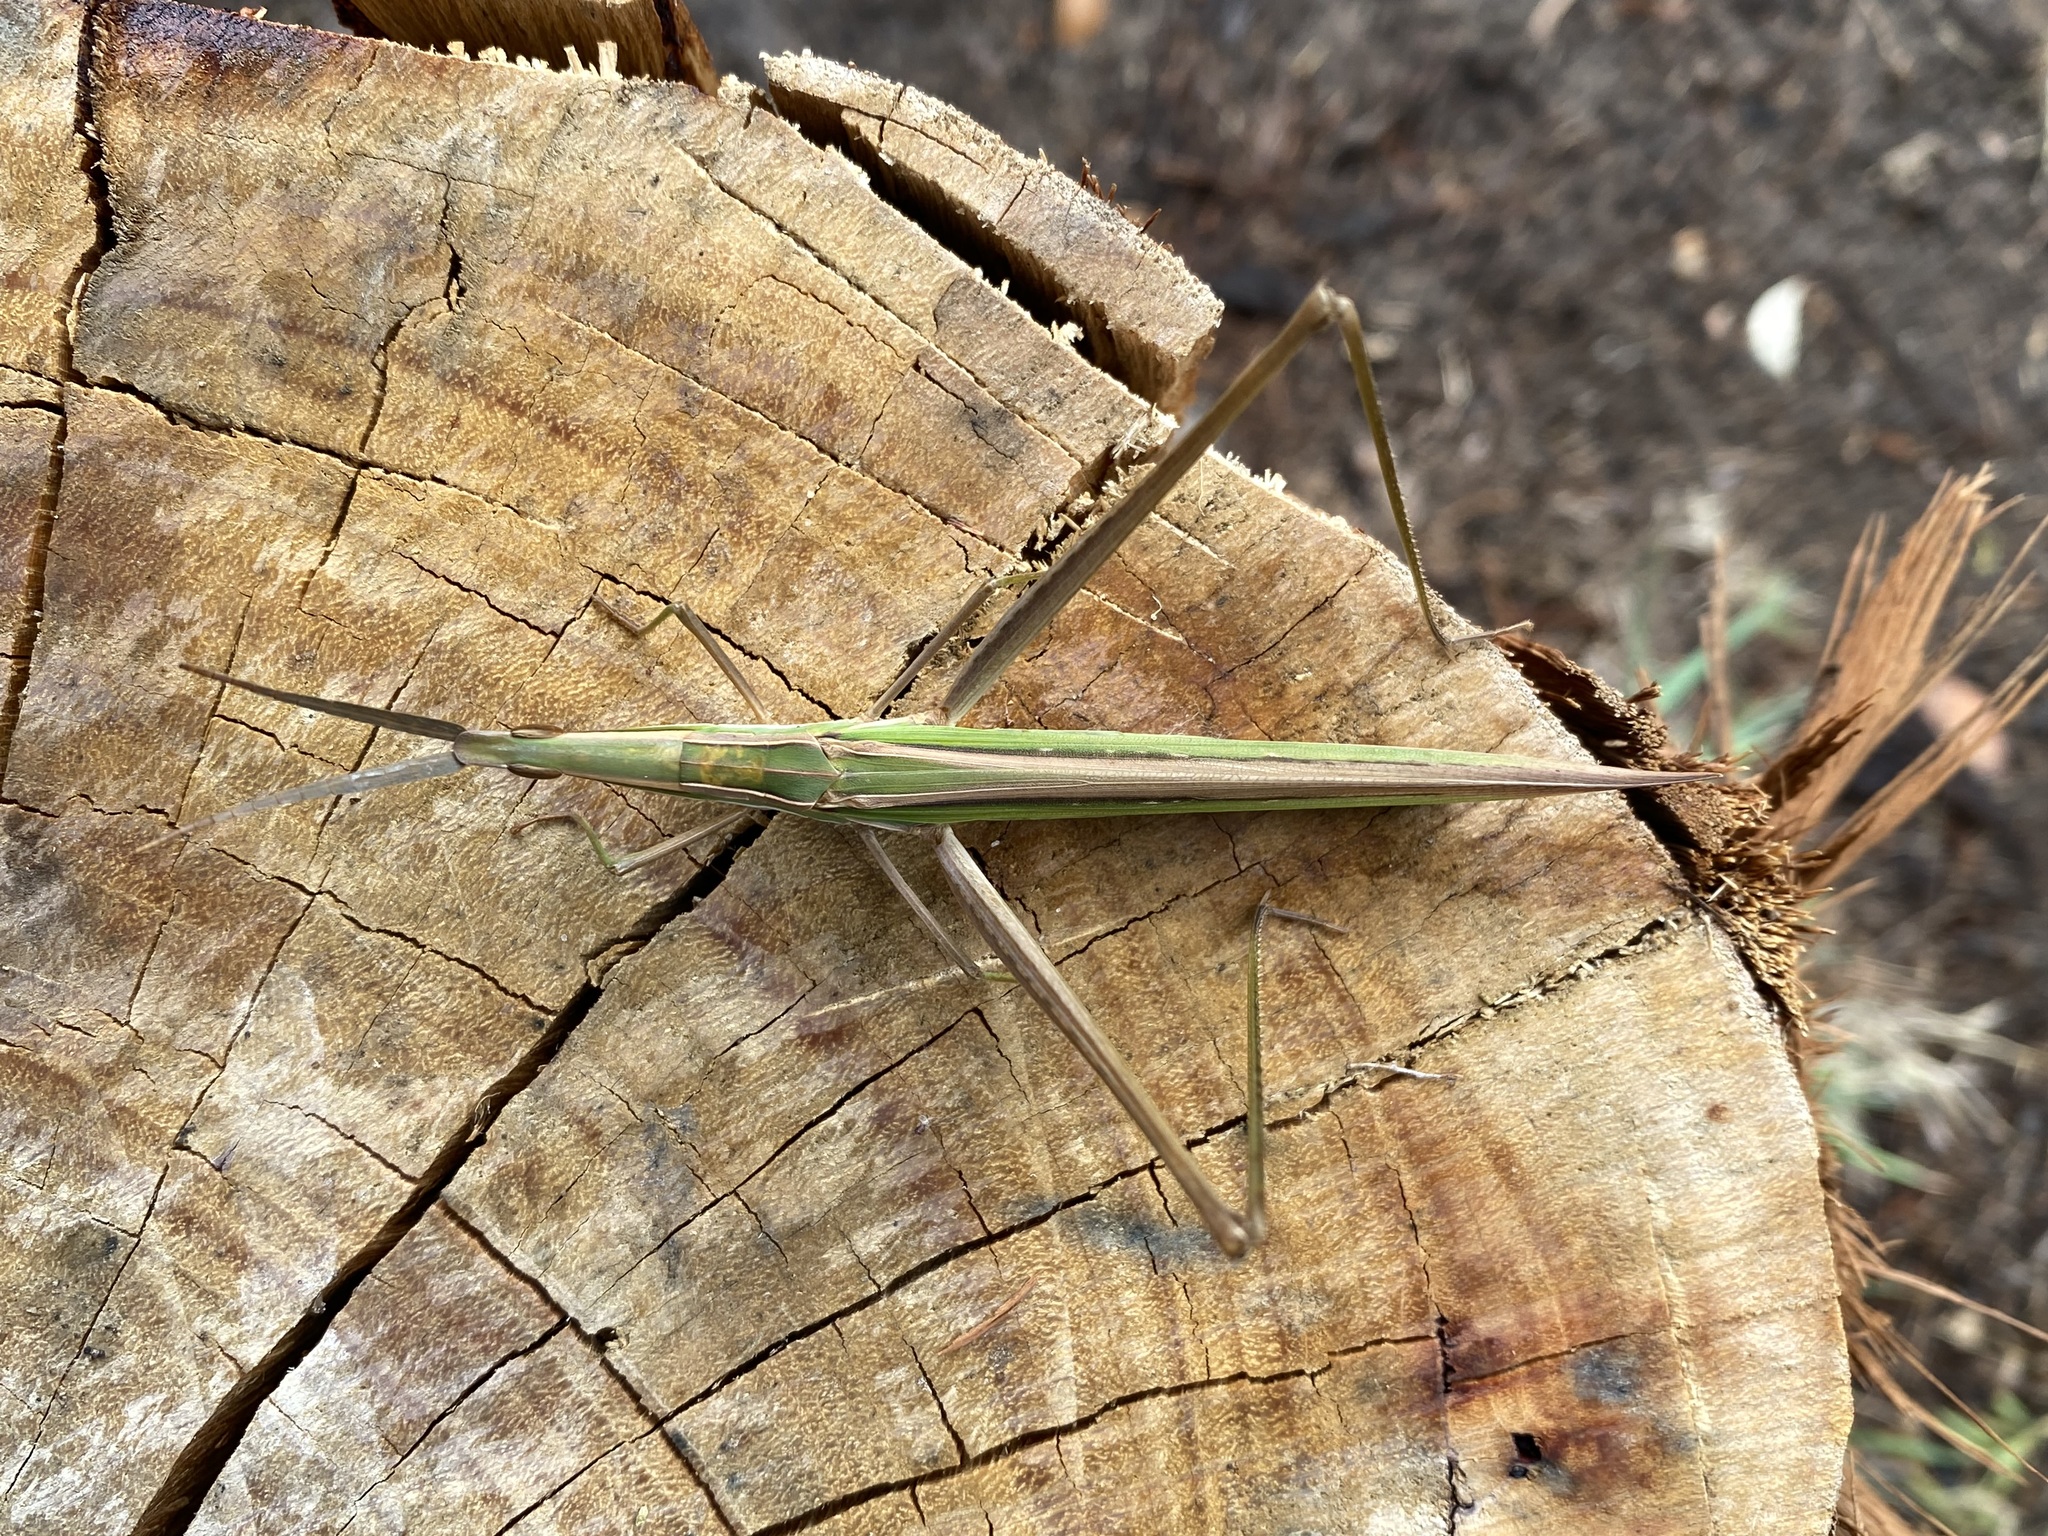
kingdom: Animalia
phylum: Arthropoda
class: Insecta
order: Orthoptera
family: Acrididae
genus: Acrida
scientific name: Acrida conica
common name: Giant green slantface
